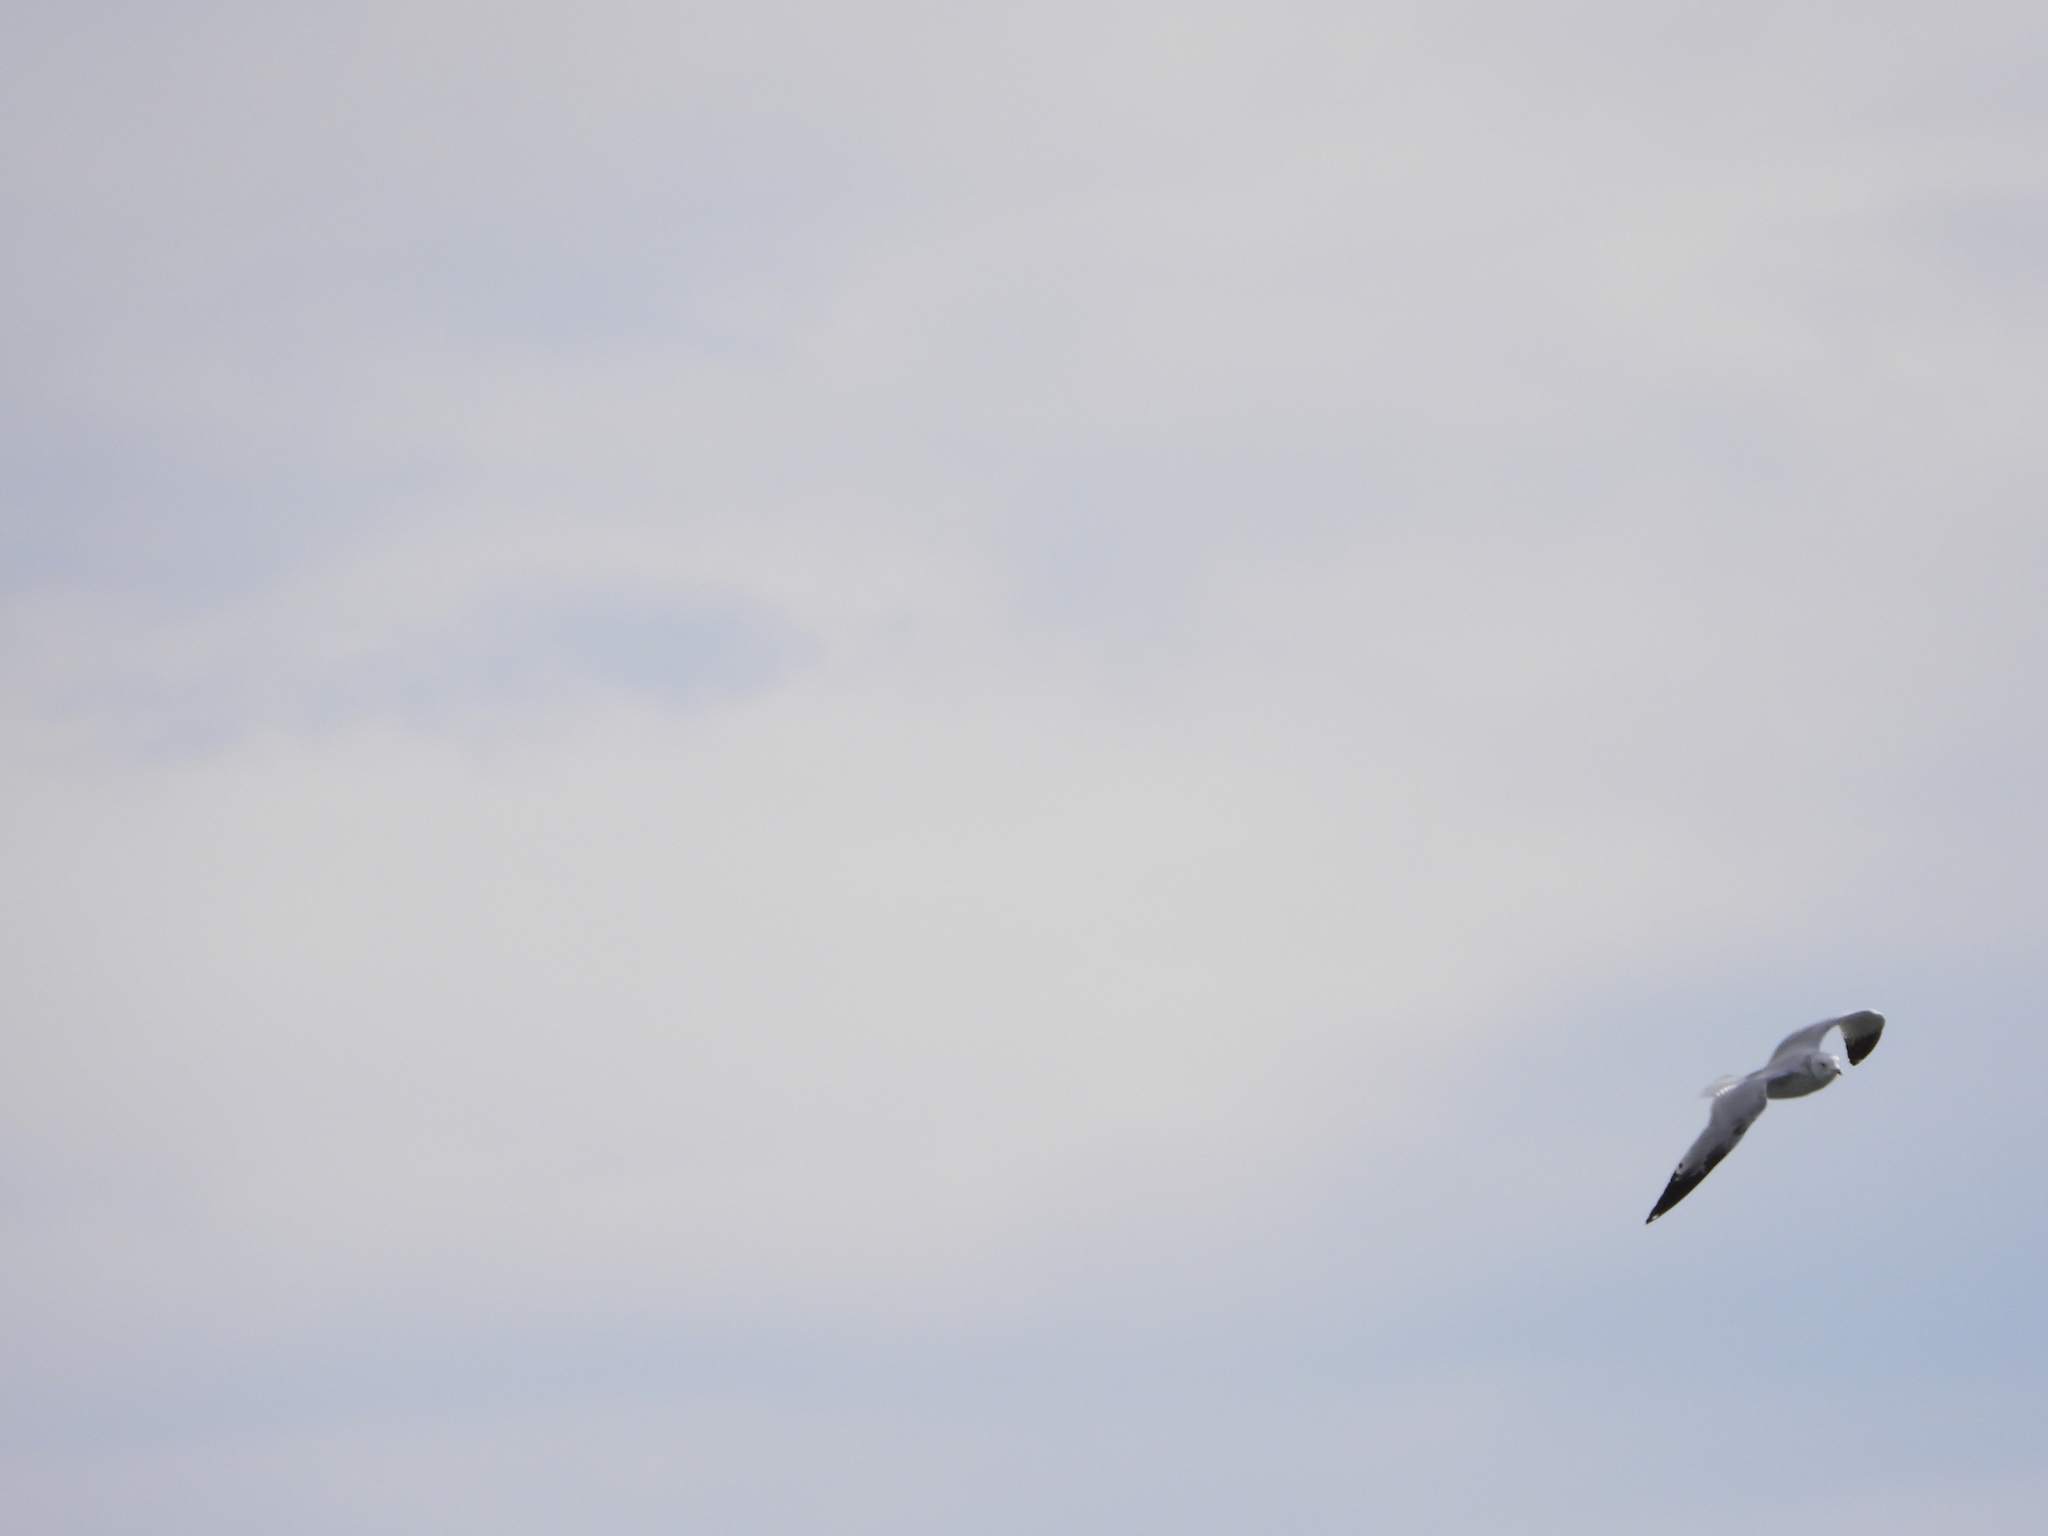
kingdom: Animalia
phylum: Chordata
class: Aves
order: Charadriiformes
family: Laridae
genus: Larus
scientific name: Larus delawarensis
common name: Ring-billed gull
